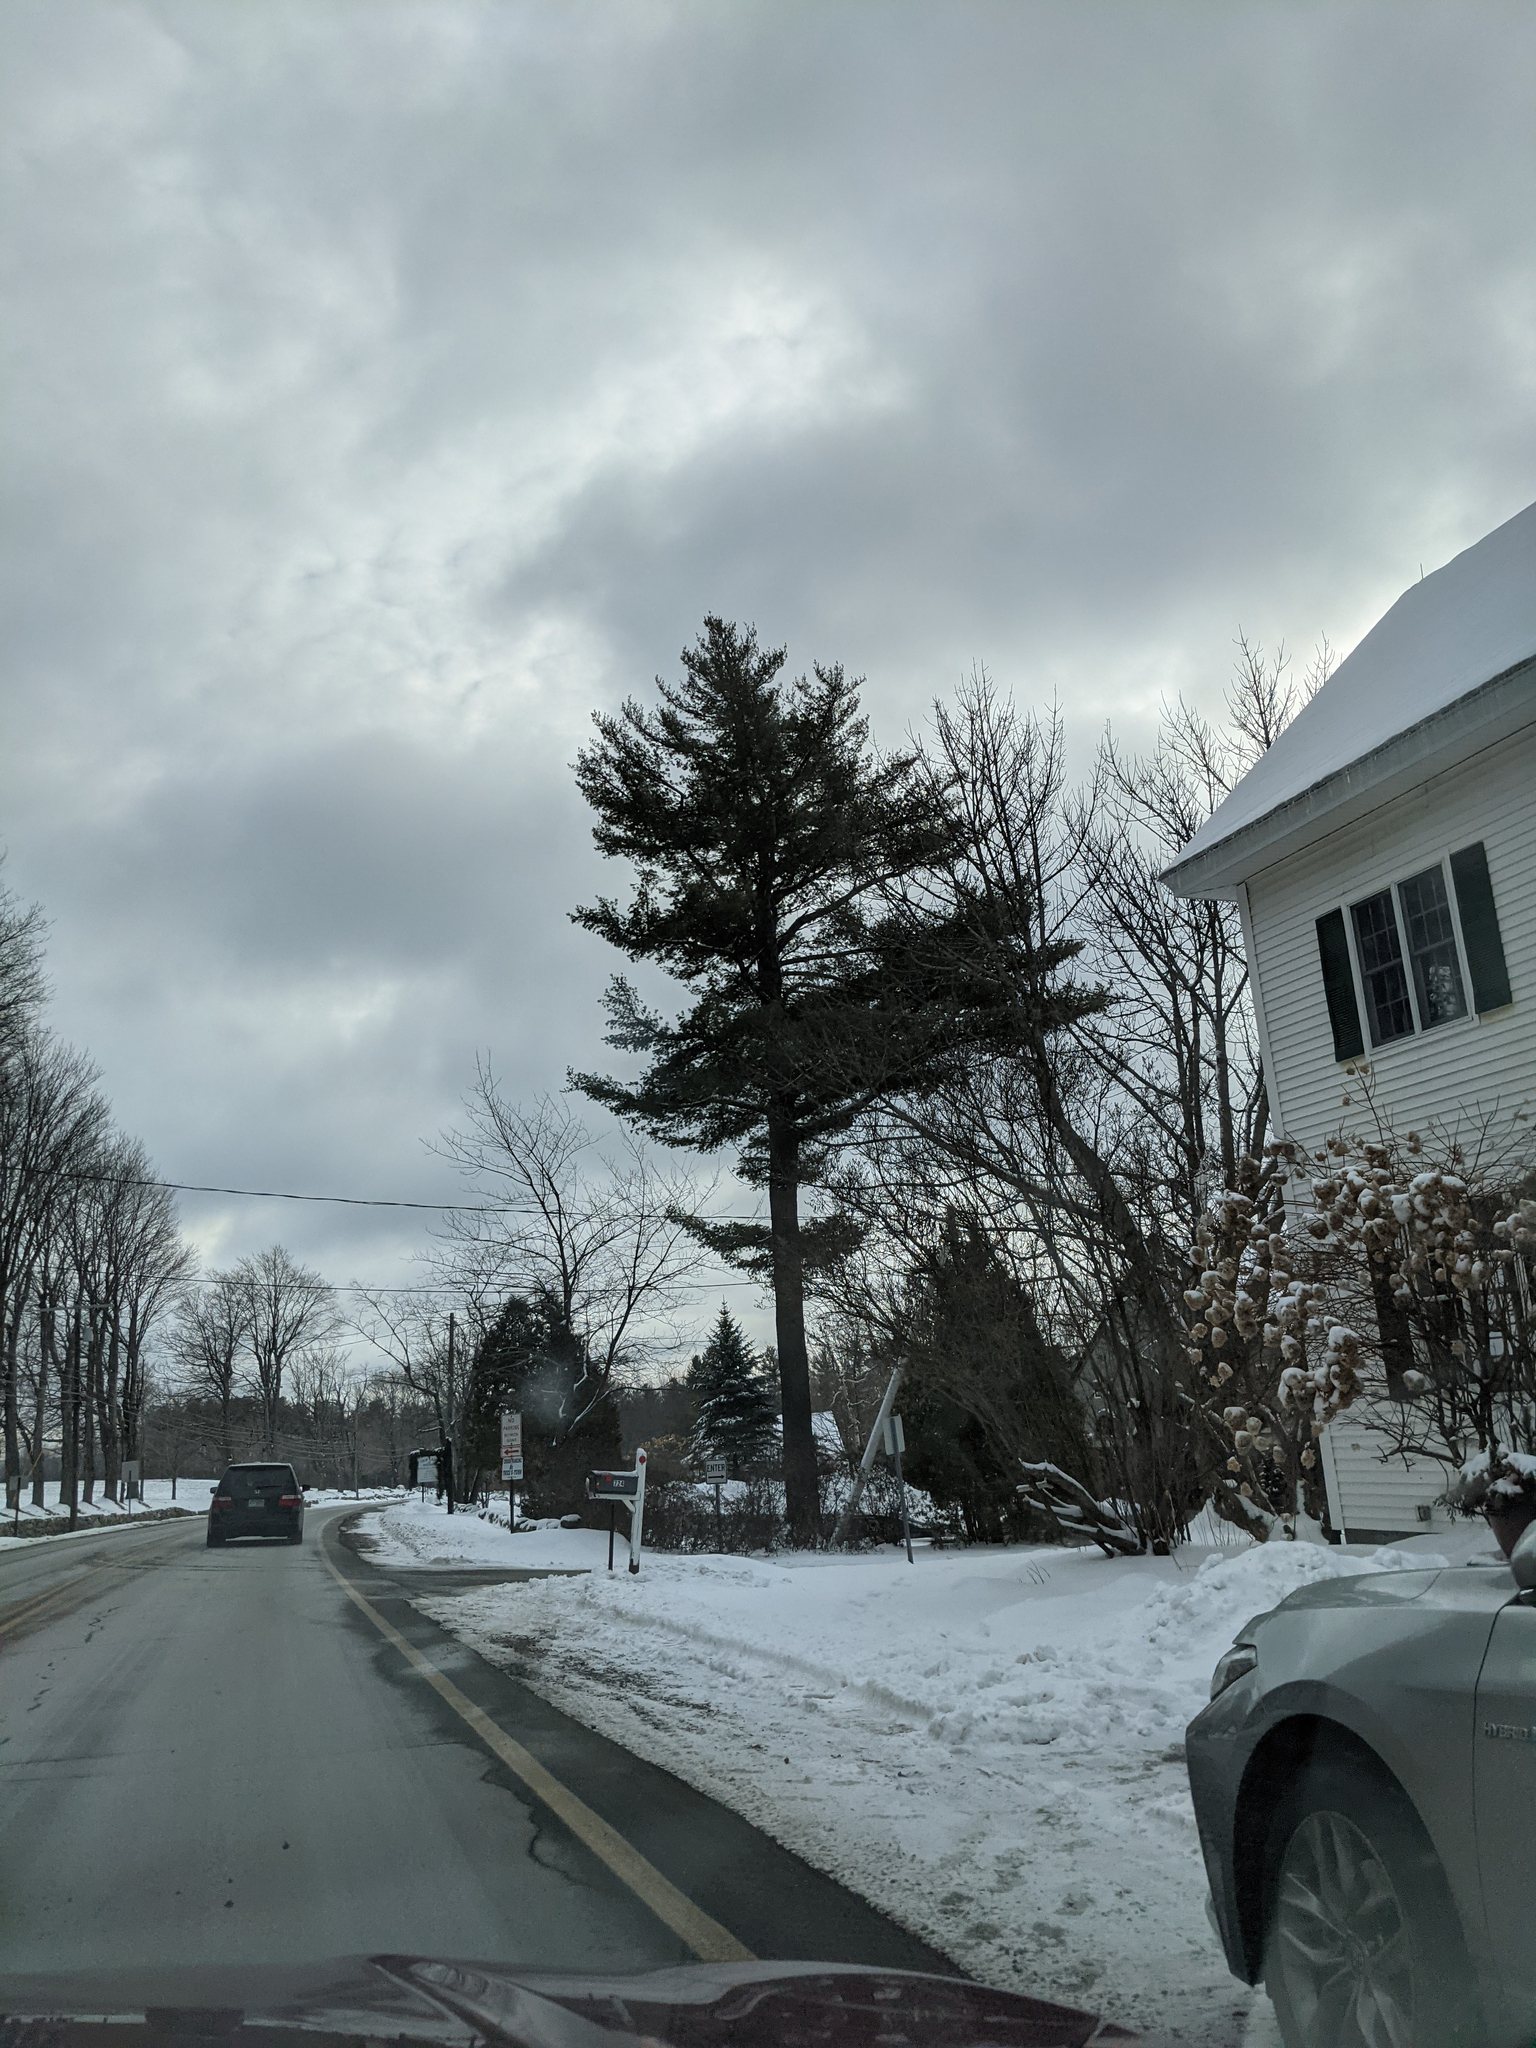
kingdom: Plantae
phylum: Tracheophyta
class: Pinopsida
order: Pinales
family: Pinaceae
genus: Pinus
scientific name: Pinus strobus
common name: Weymouth pine
